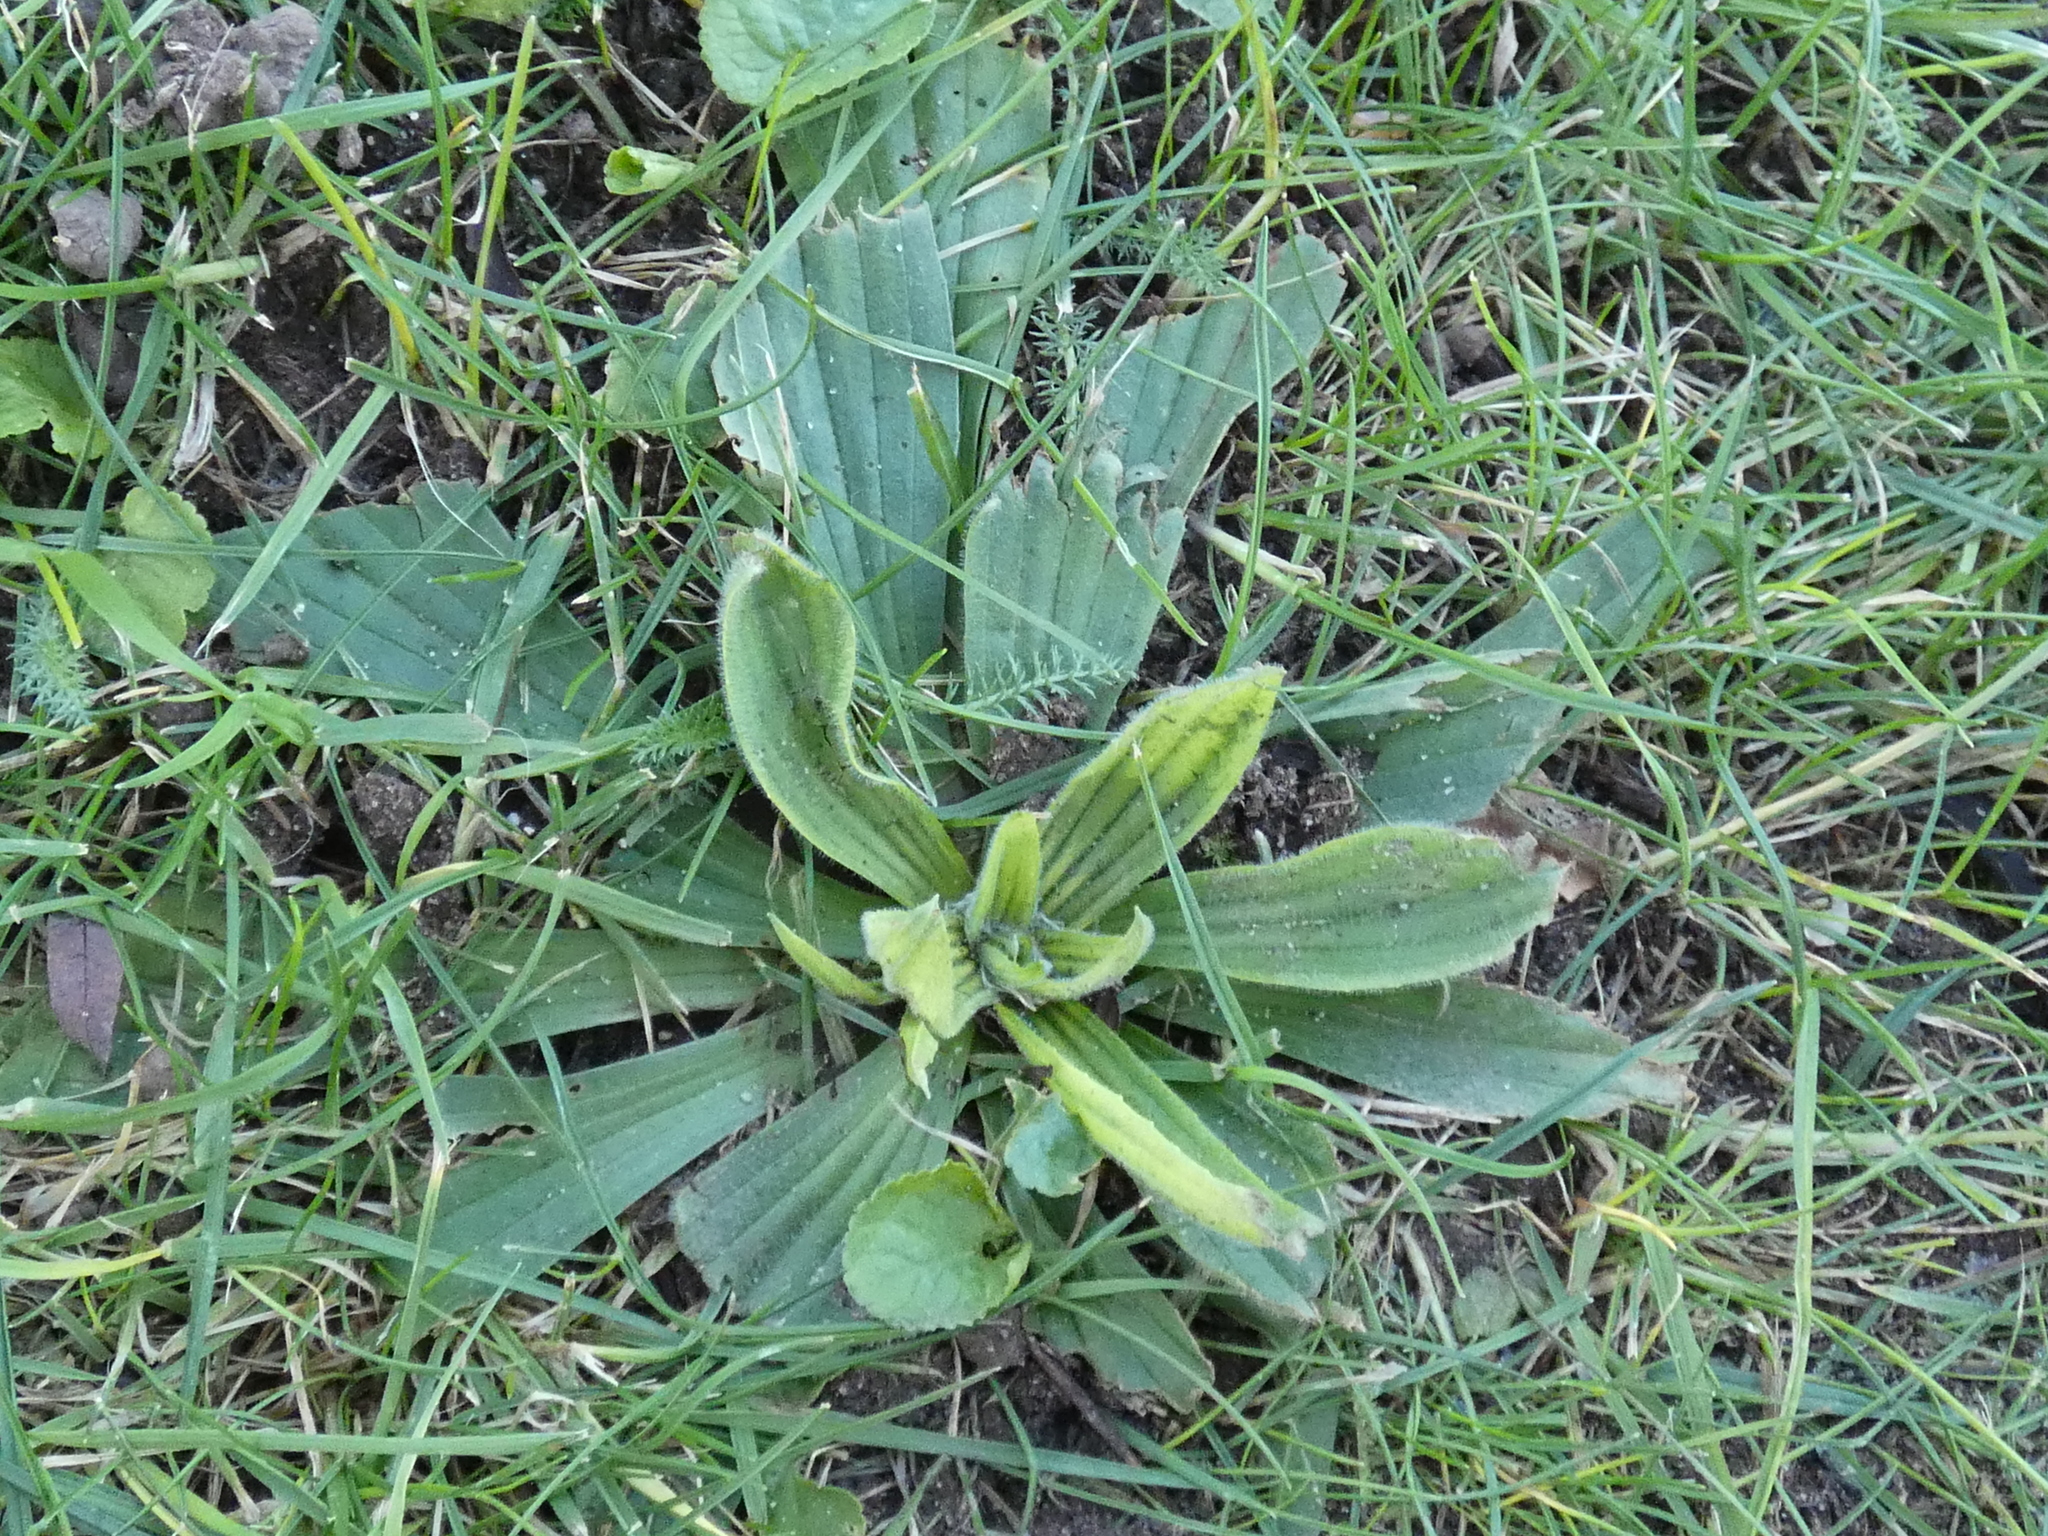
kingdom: Plantae
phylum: Tracheophyta
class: Magnoliopsida
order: Lamiales
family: Plantaginaceae
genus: Plantago
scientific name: Plantago lanceolata
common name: Ribwort plantain
